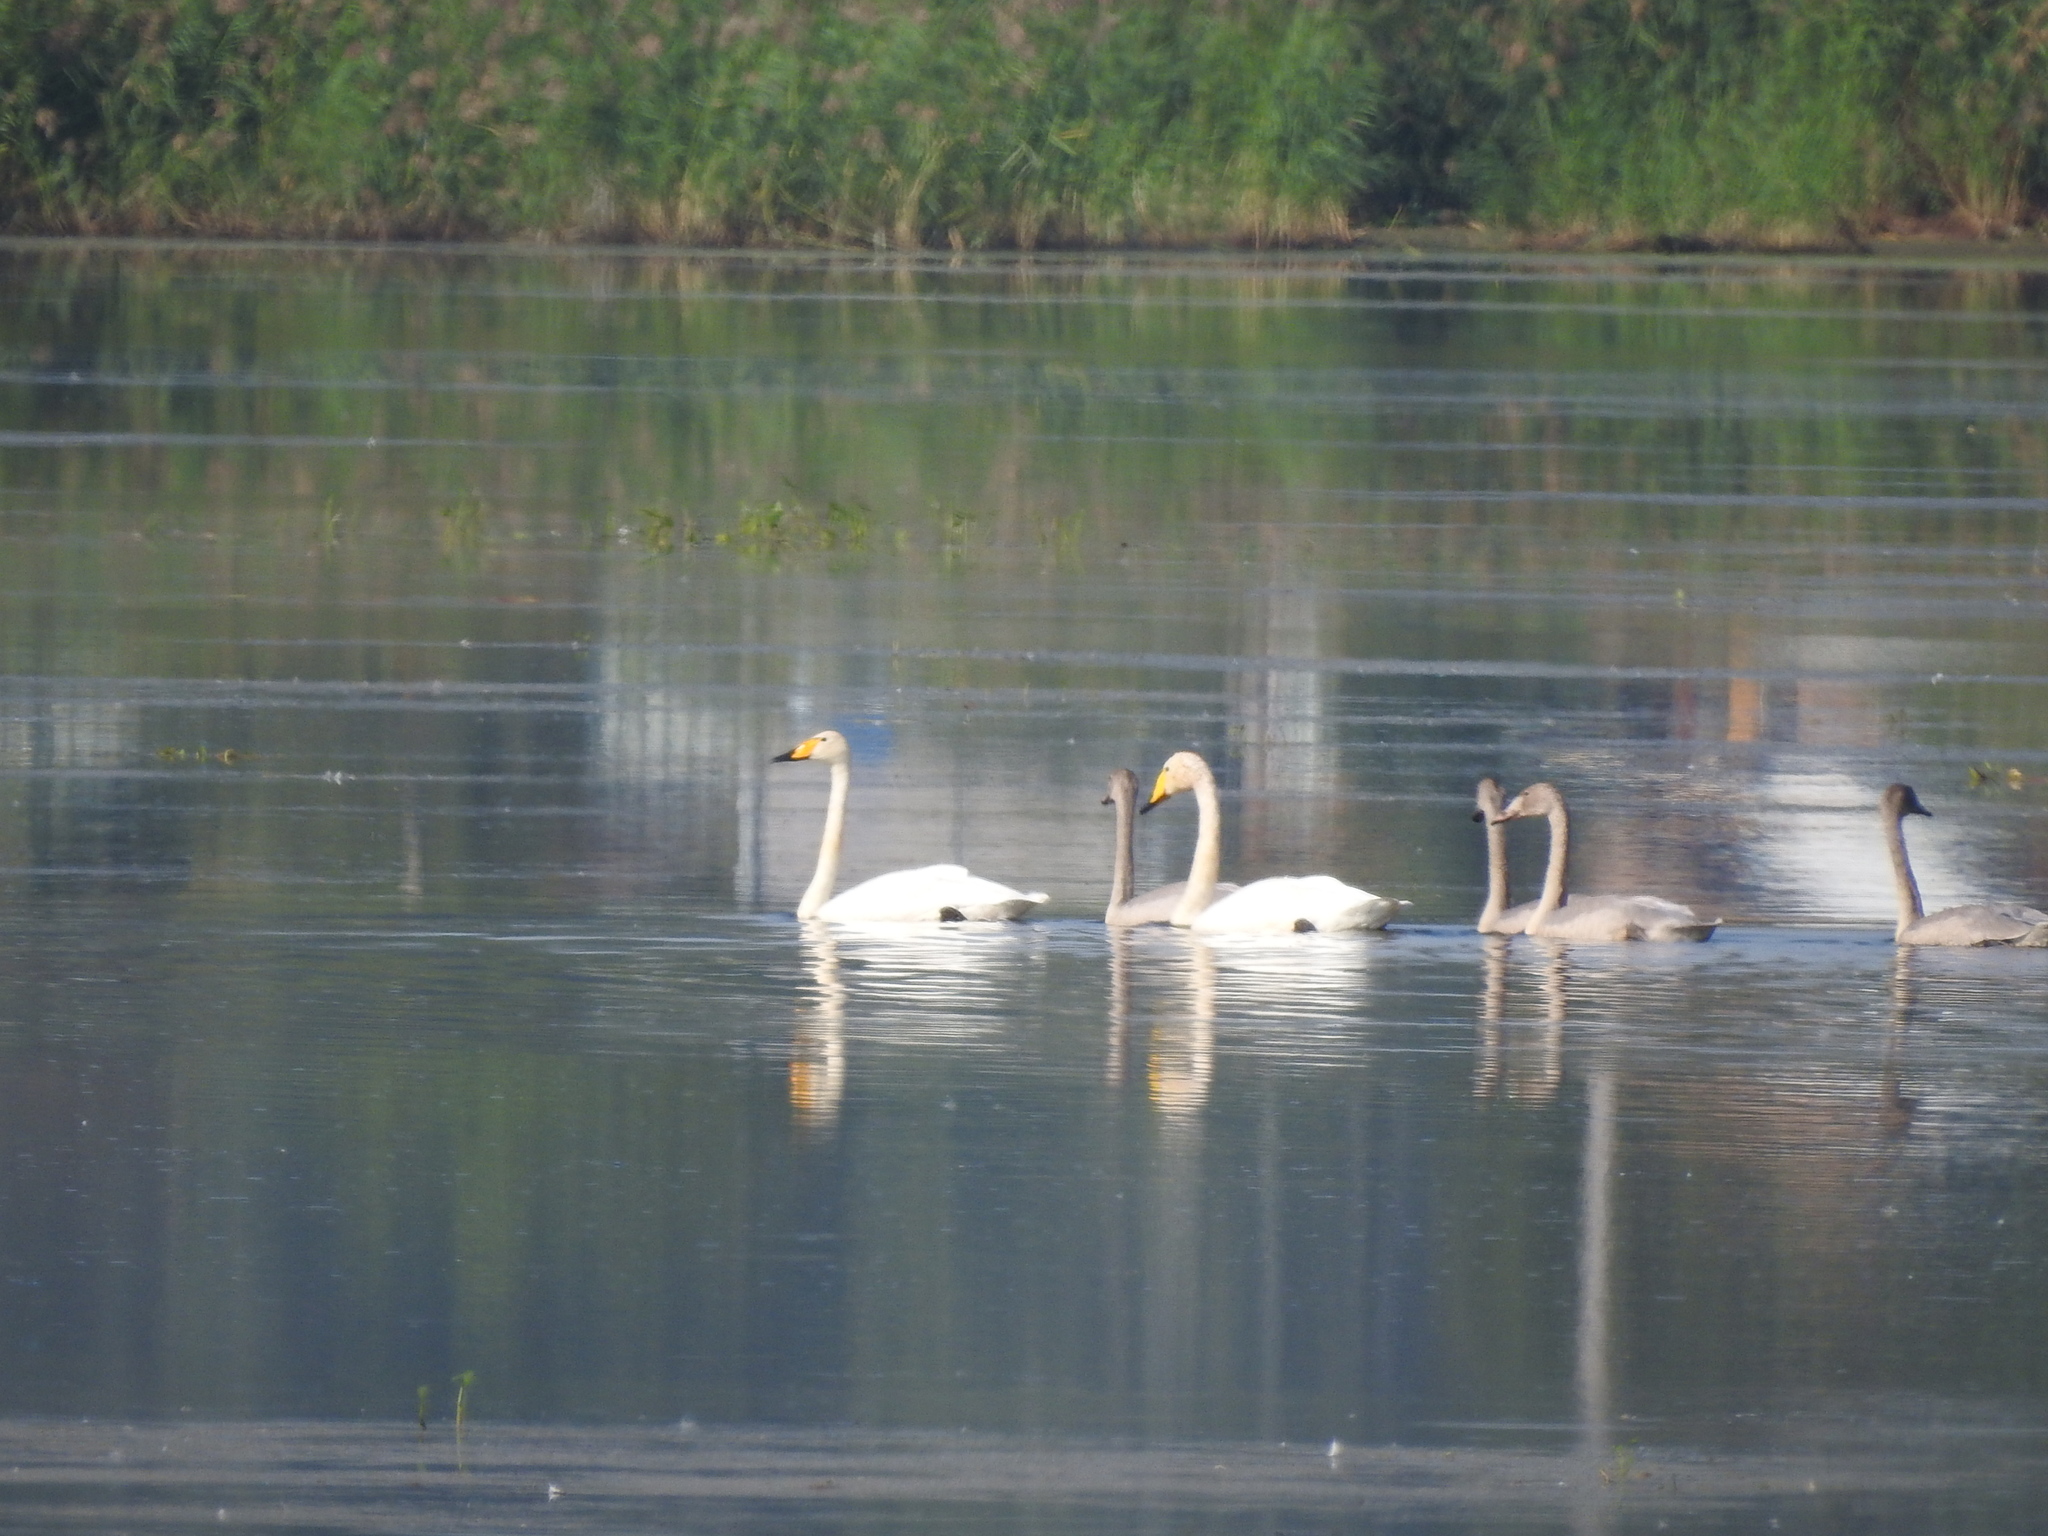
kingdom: Animalia
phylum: Chordata
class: Aves
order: Anseriformes
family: Anatidae
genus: Cygnus
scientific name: Cygnus cygnus
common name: Whooper swan
